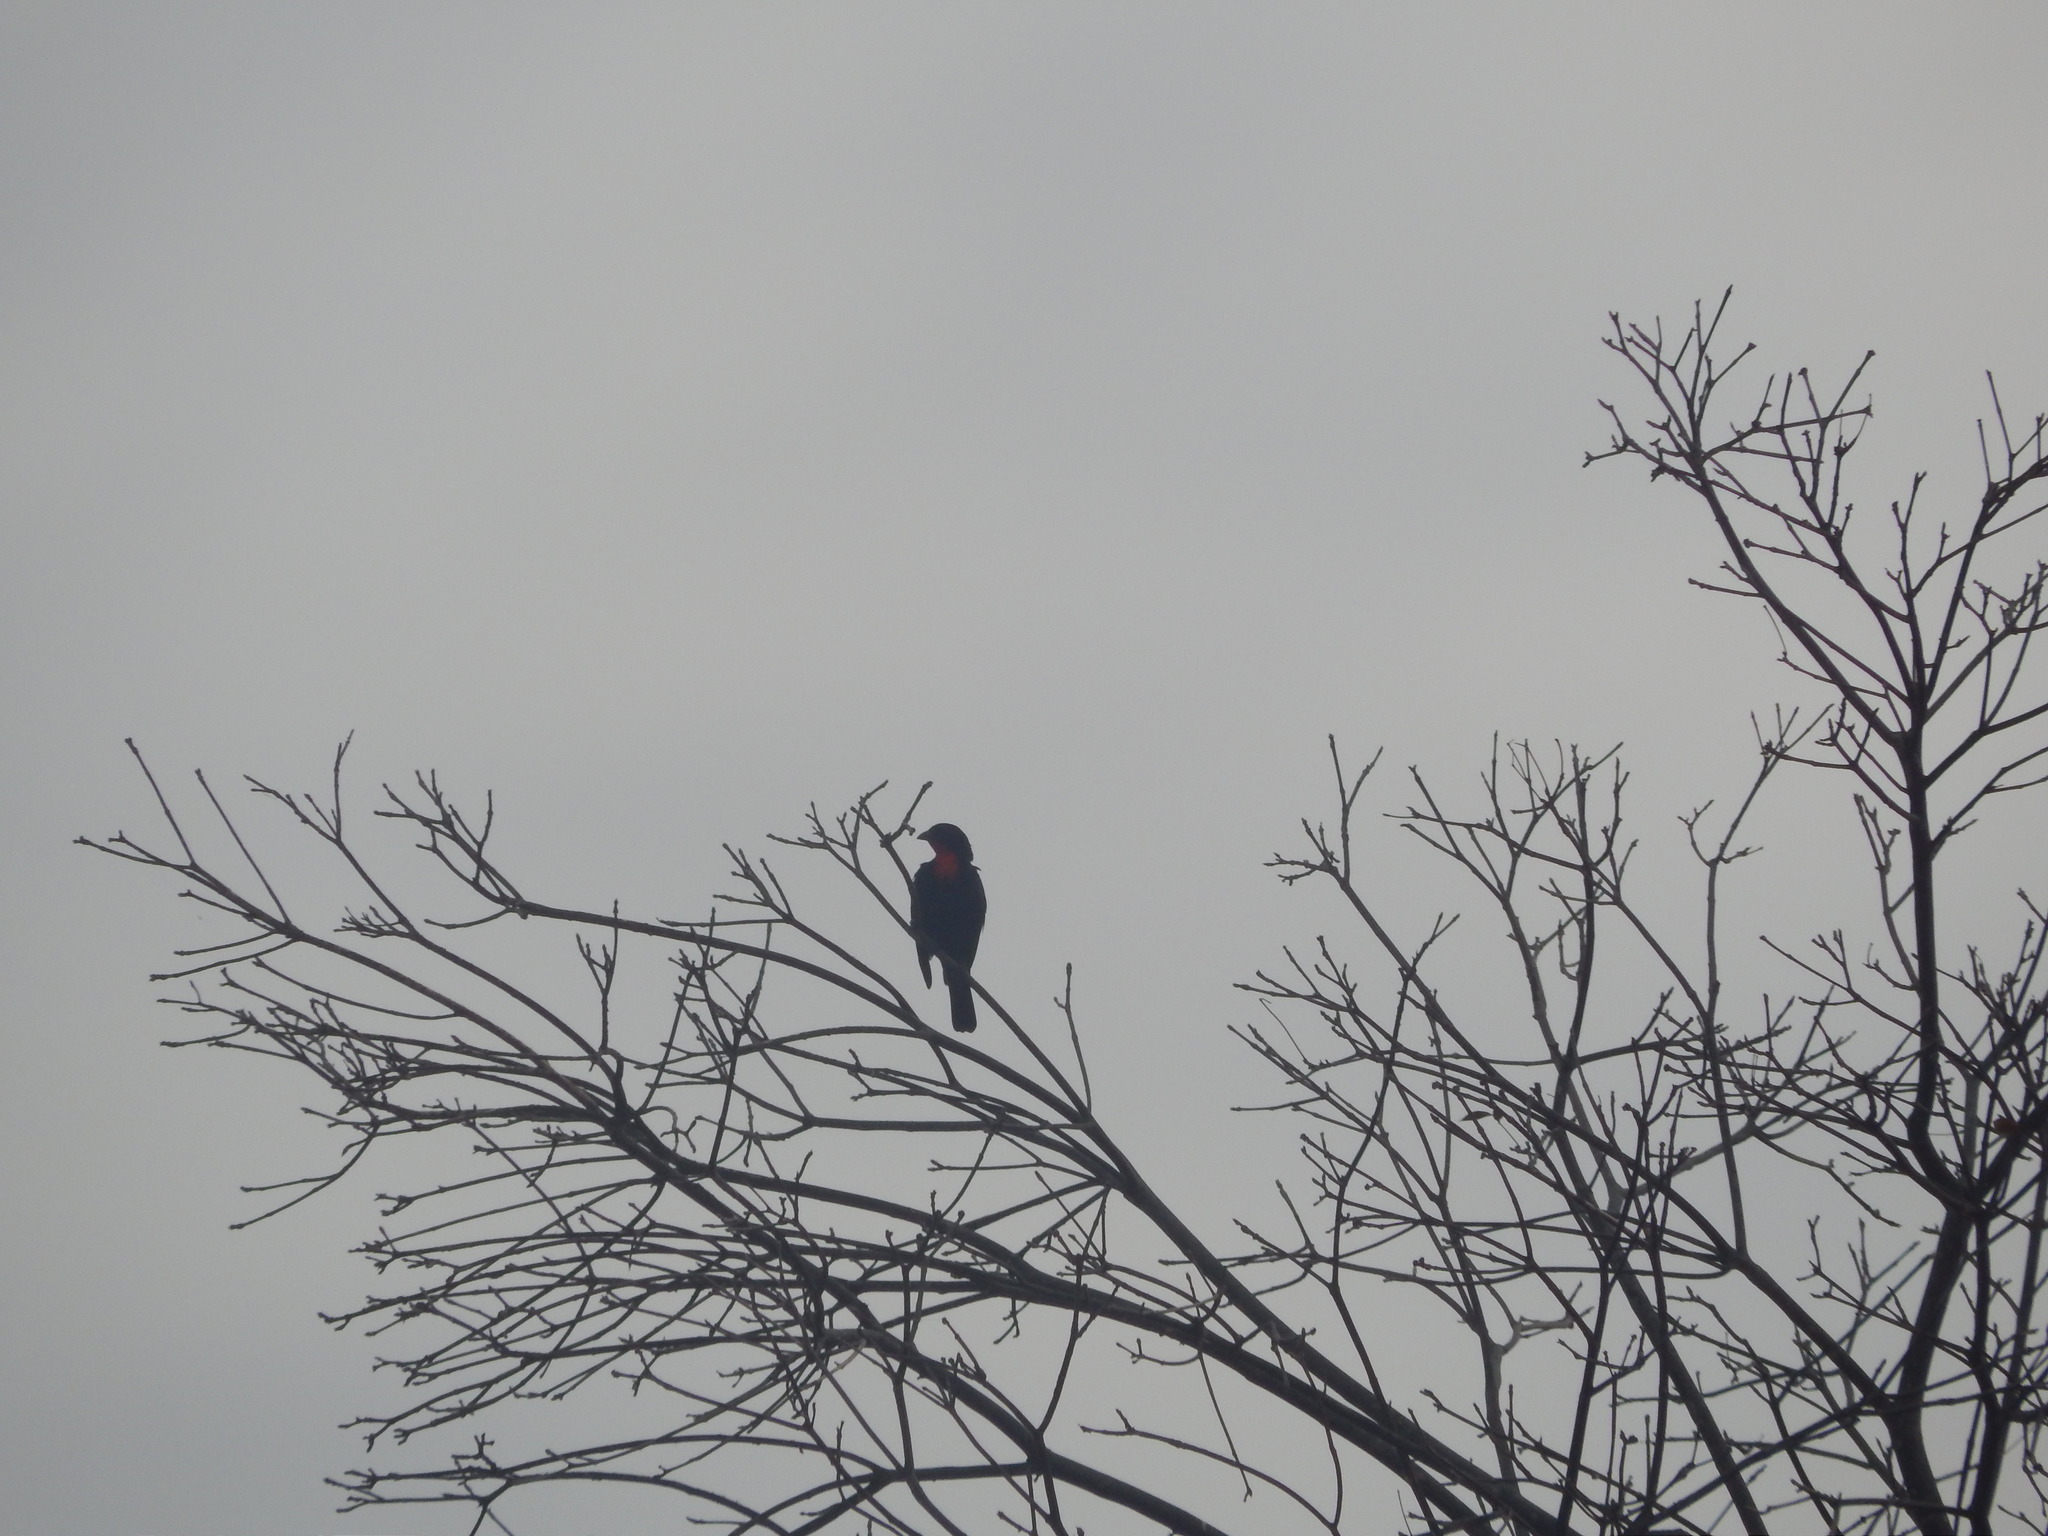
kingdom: Animalia
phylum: Chordata
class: Aves
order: Passeriformes
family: Thraupidae
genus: Compsothraupis
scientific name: Compsothraupis loricata
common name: Scarlet-throated tanager
